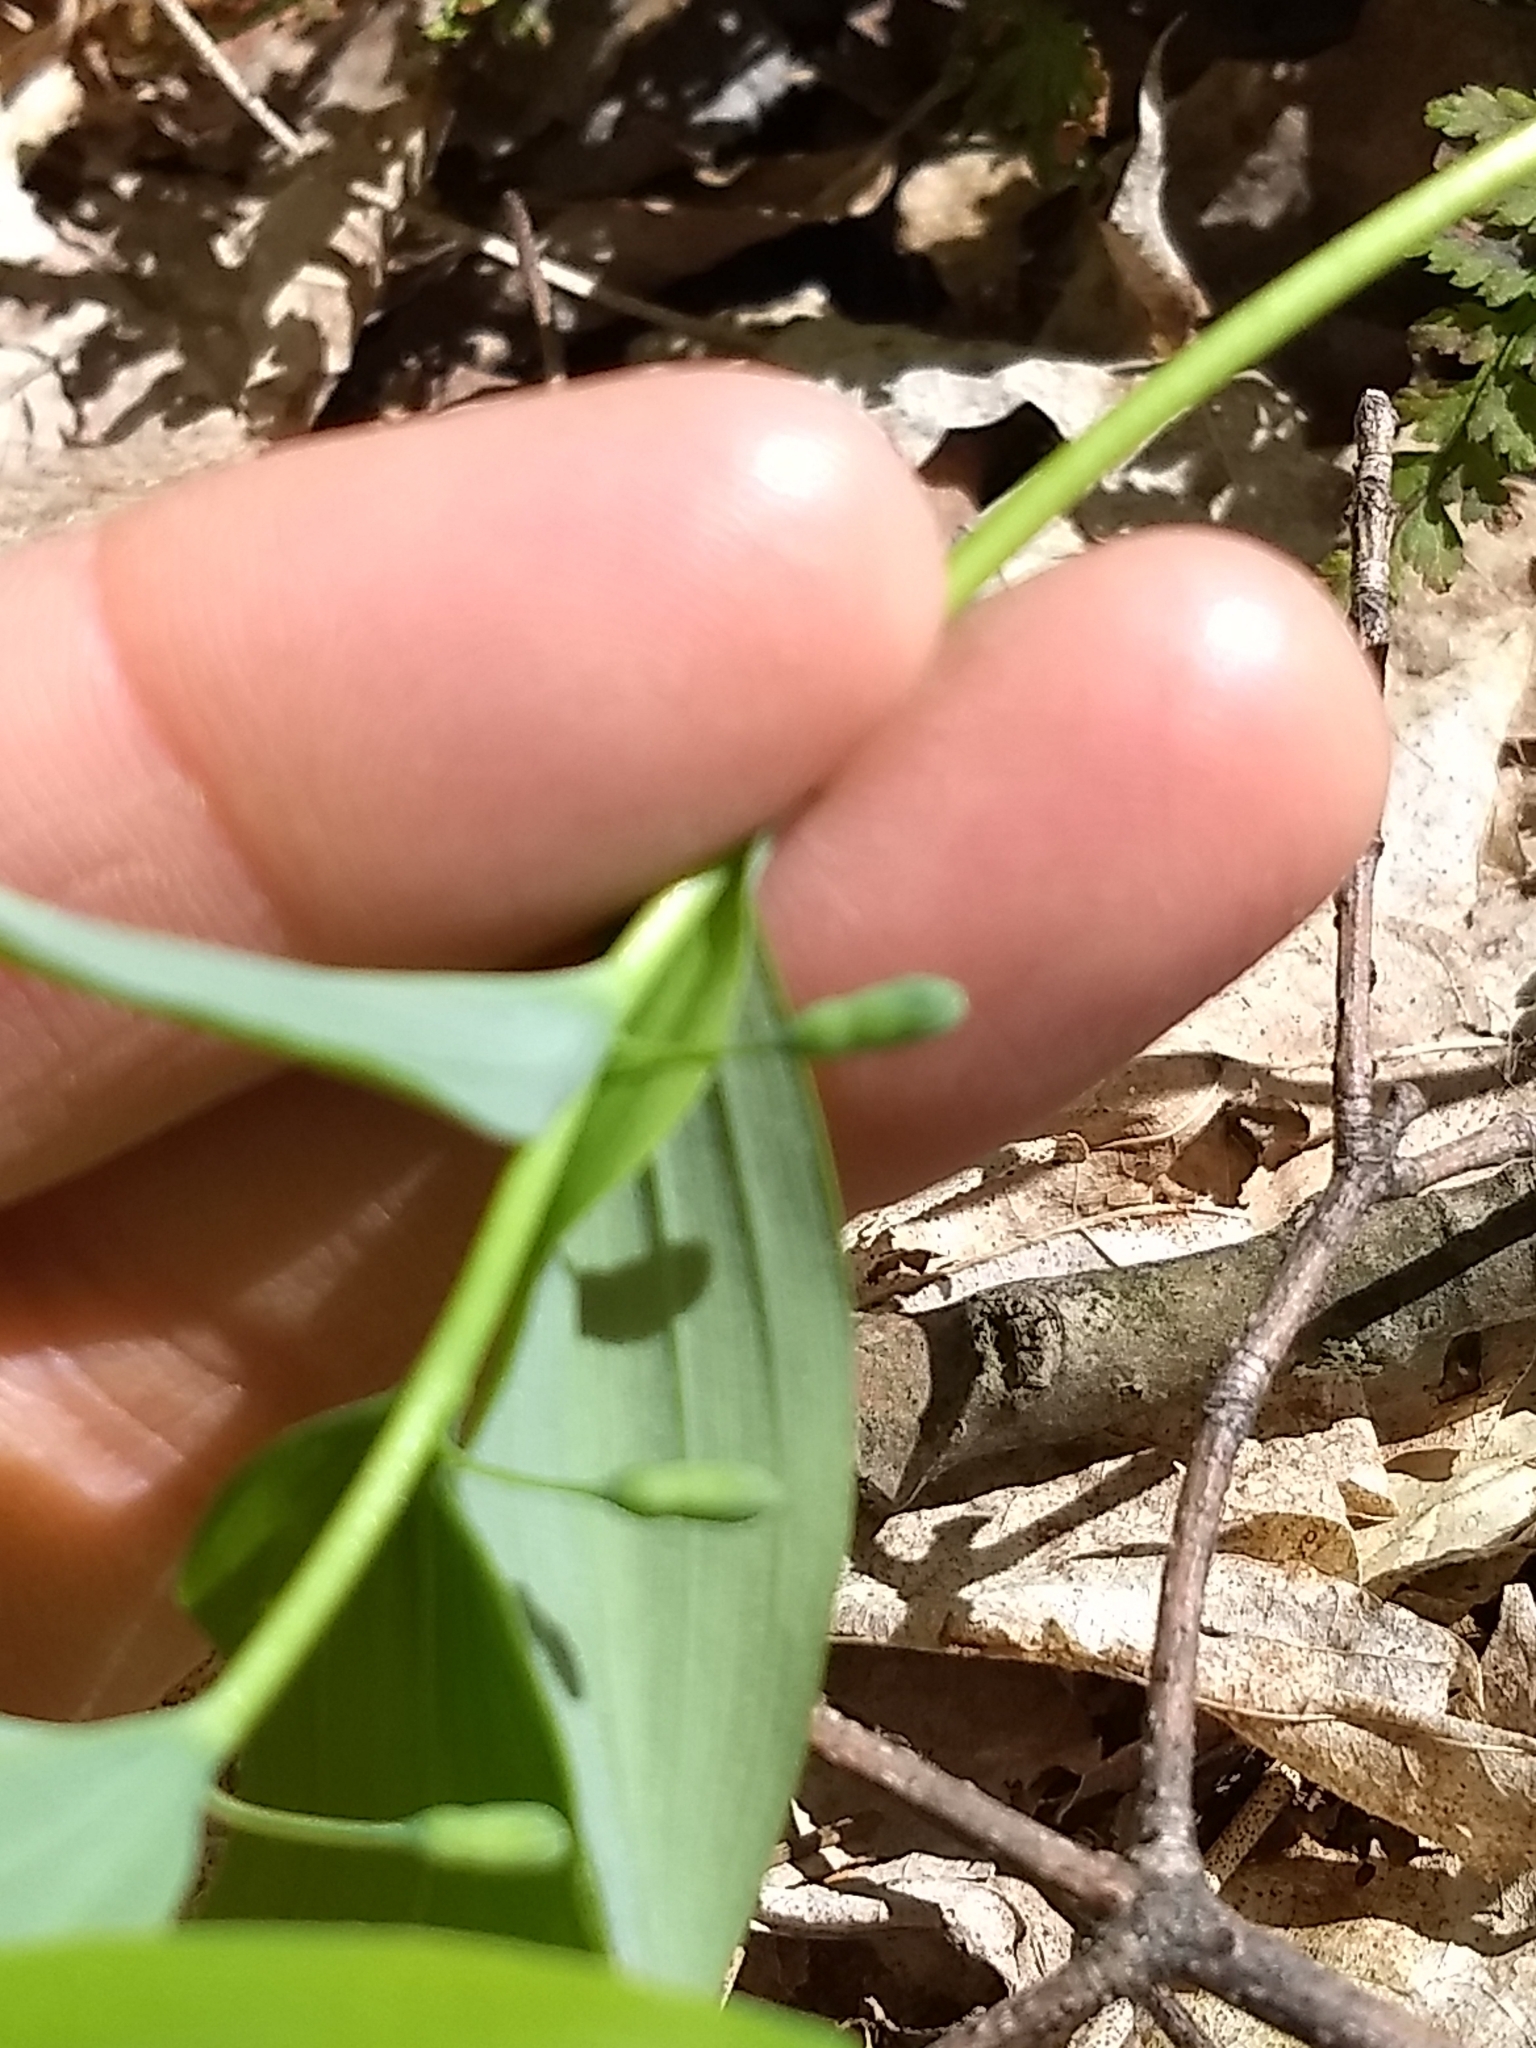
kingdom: Plantae
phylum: Tracheophyta
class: Liliopsida
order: Asparagales
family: Asparagaceae
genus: Polygonatum
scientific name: Polygonatum pubescens
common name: Downy solomon's seal
